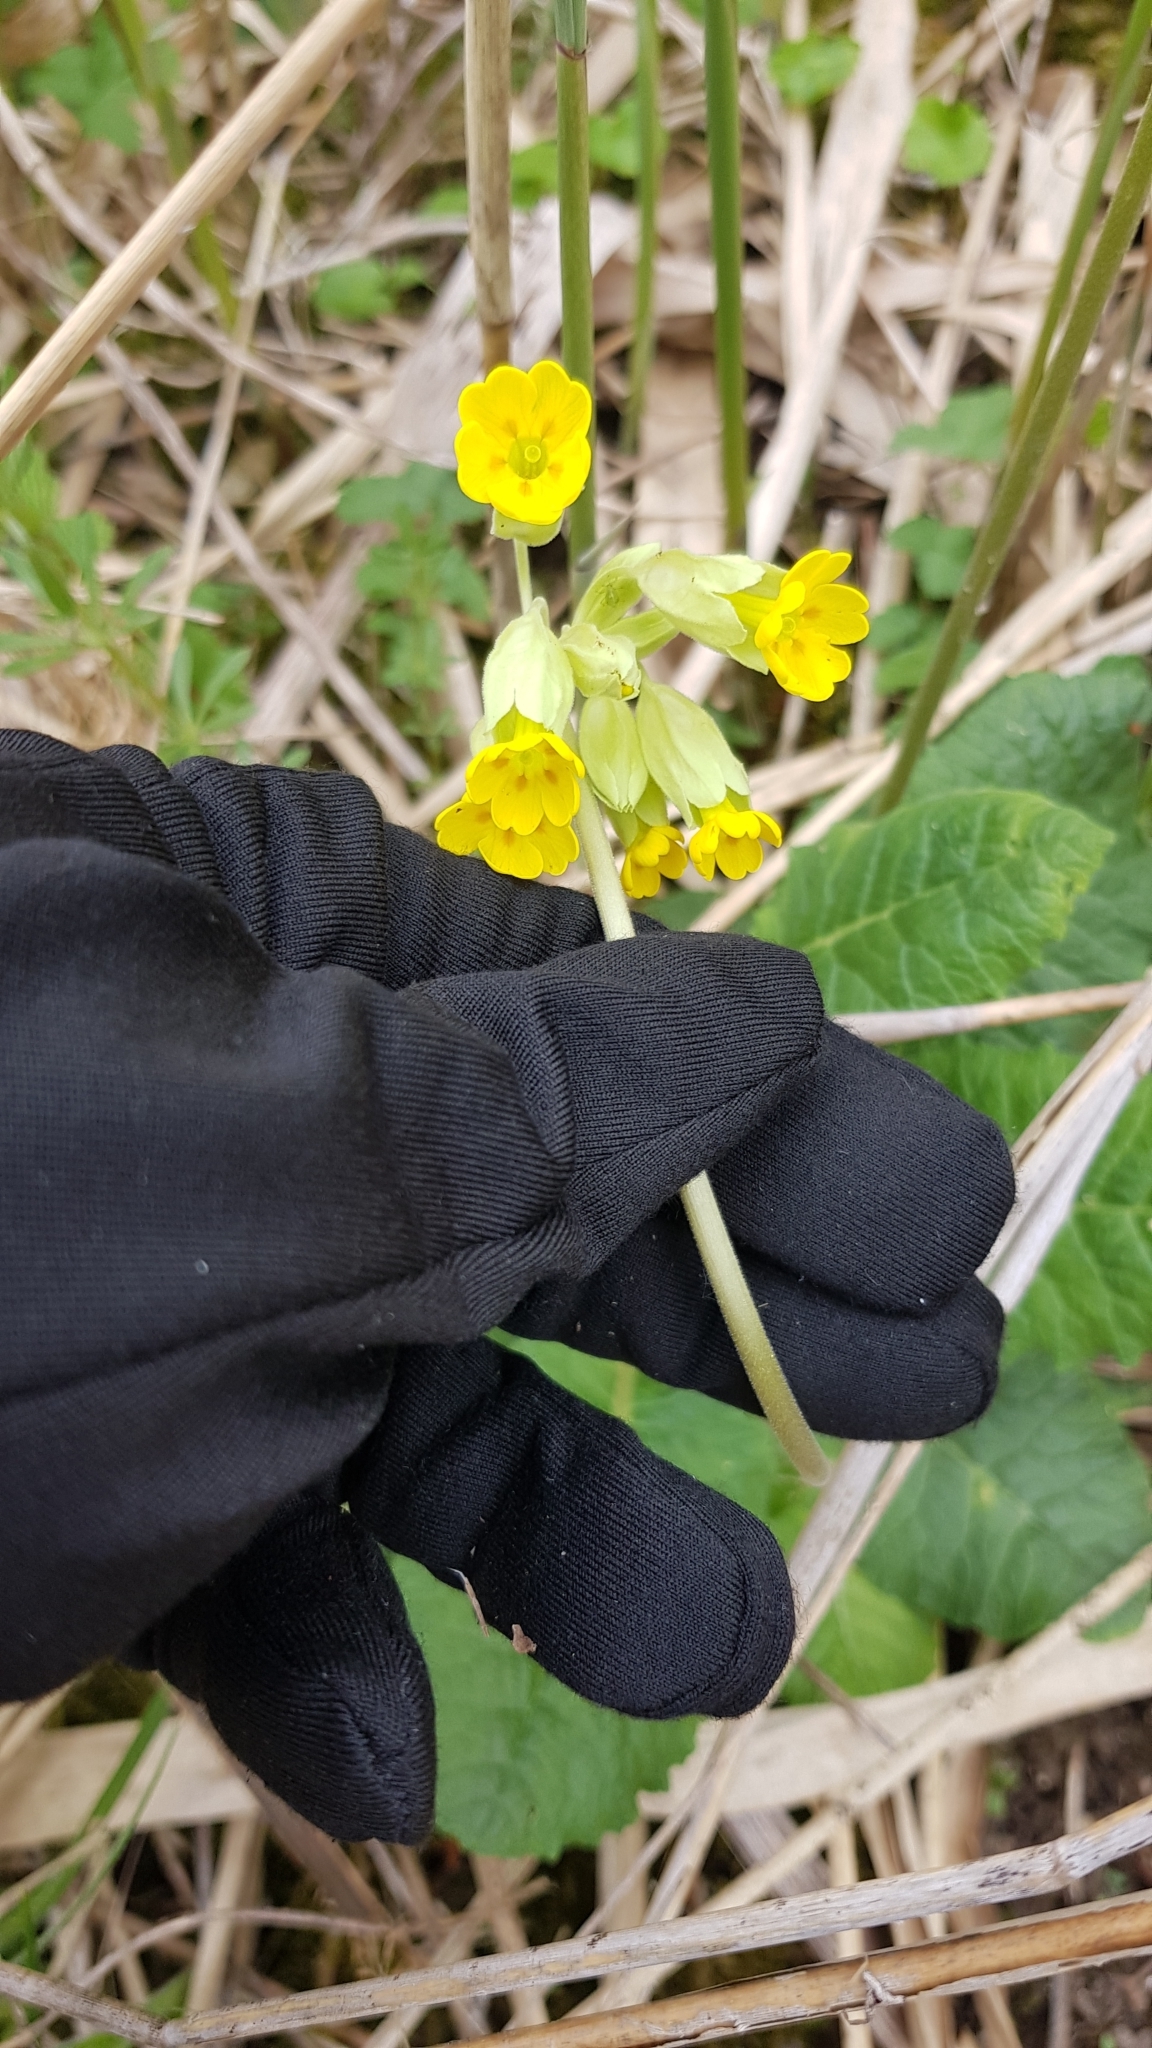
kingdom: Plantae
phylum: Tracheophyta
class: Magnoliopsida
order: Ericales
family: Primulaceae
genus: Primula
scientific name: Primula veris
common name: Cowslip
